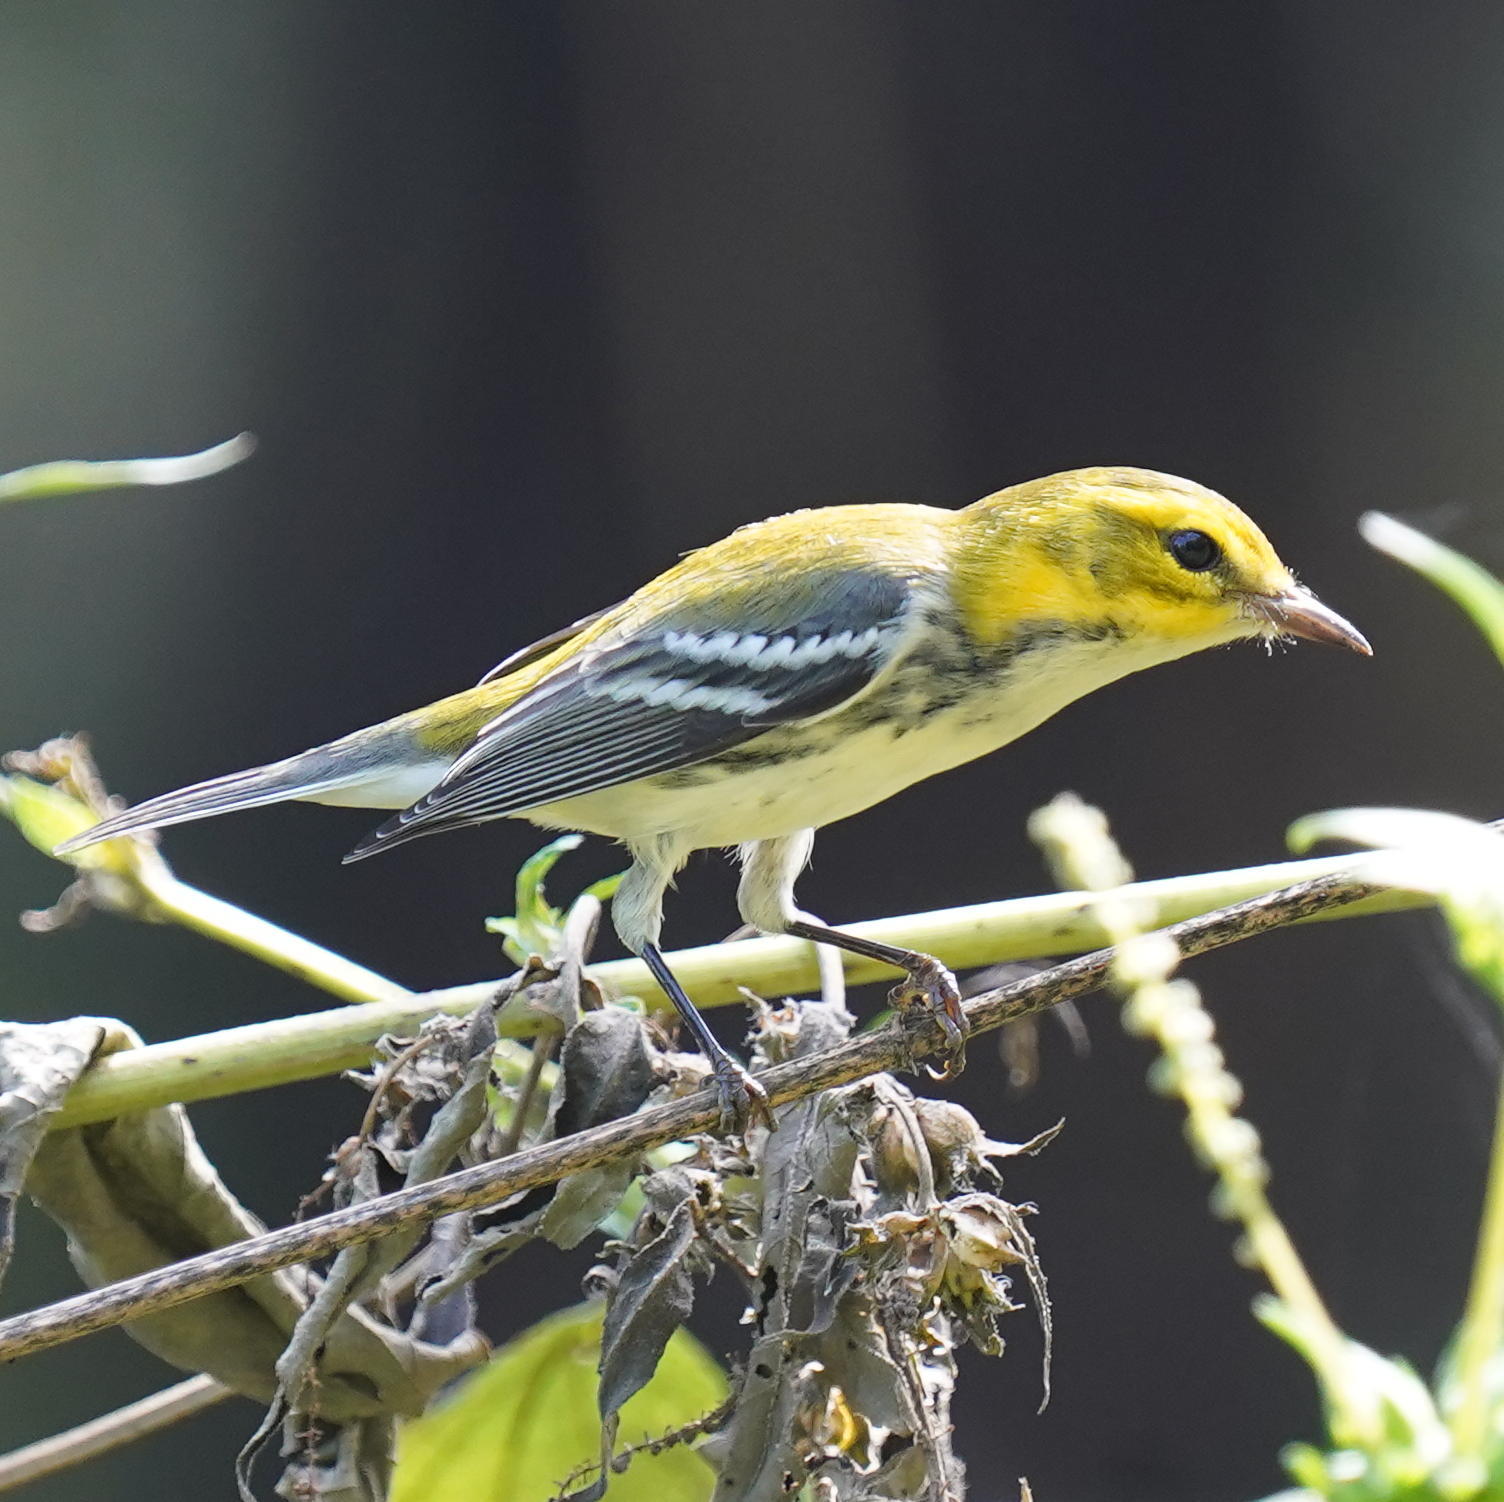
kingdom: Animalia
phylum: Chordata
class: Aves
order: Passeriformes
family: Parulidae
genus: Setophaga
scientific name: Setophaga virens
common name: Black-throated green warbler
